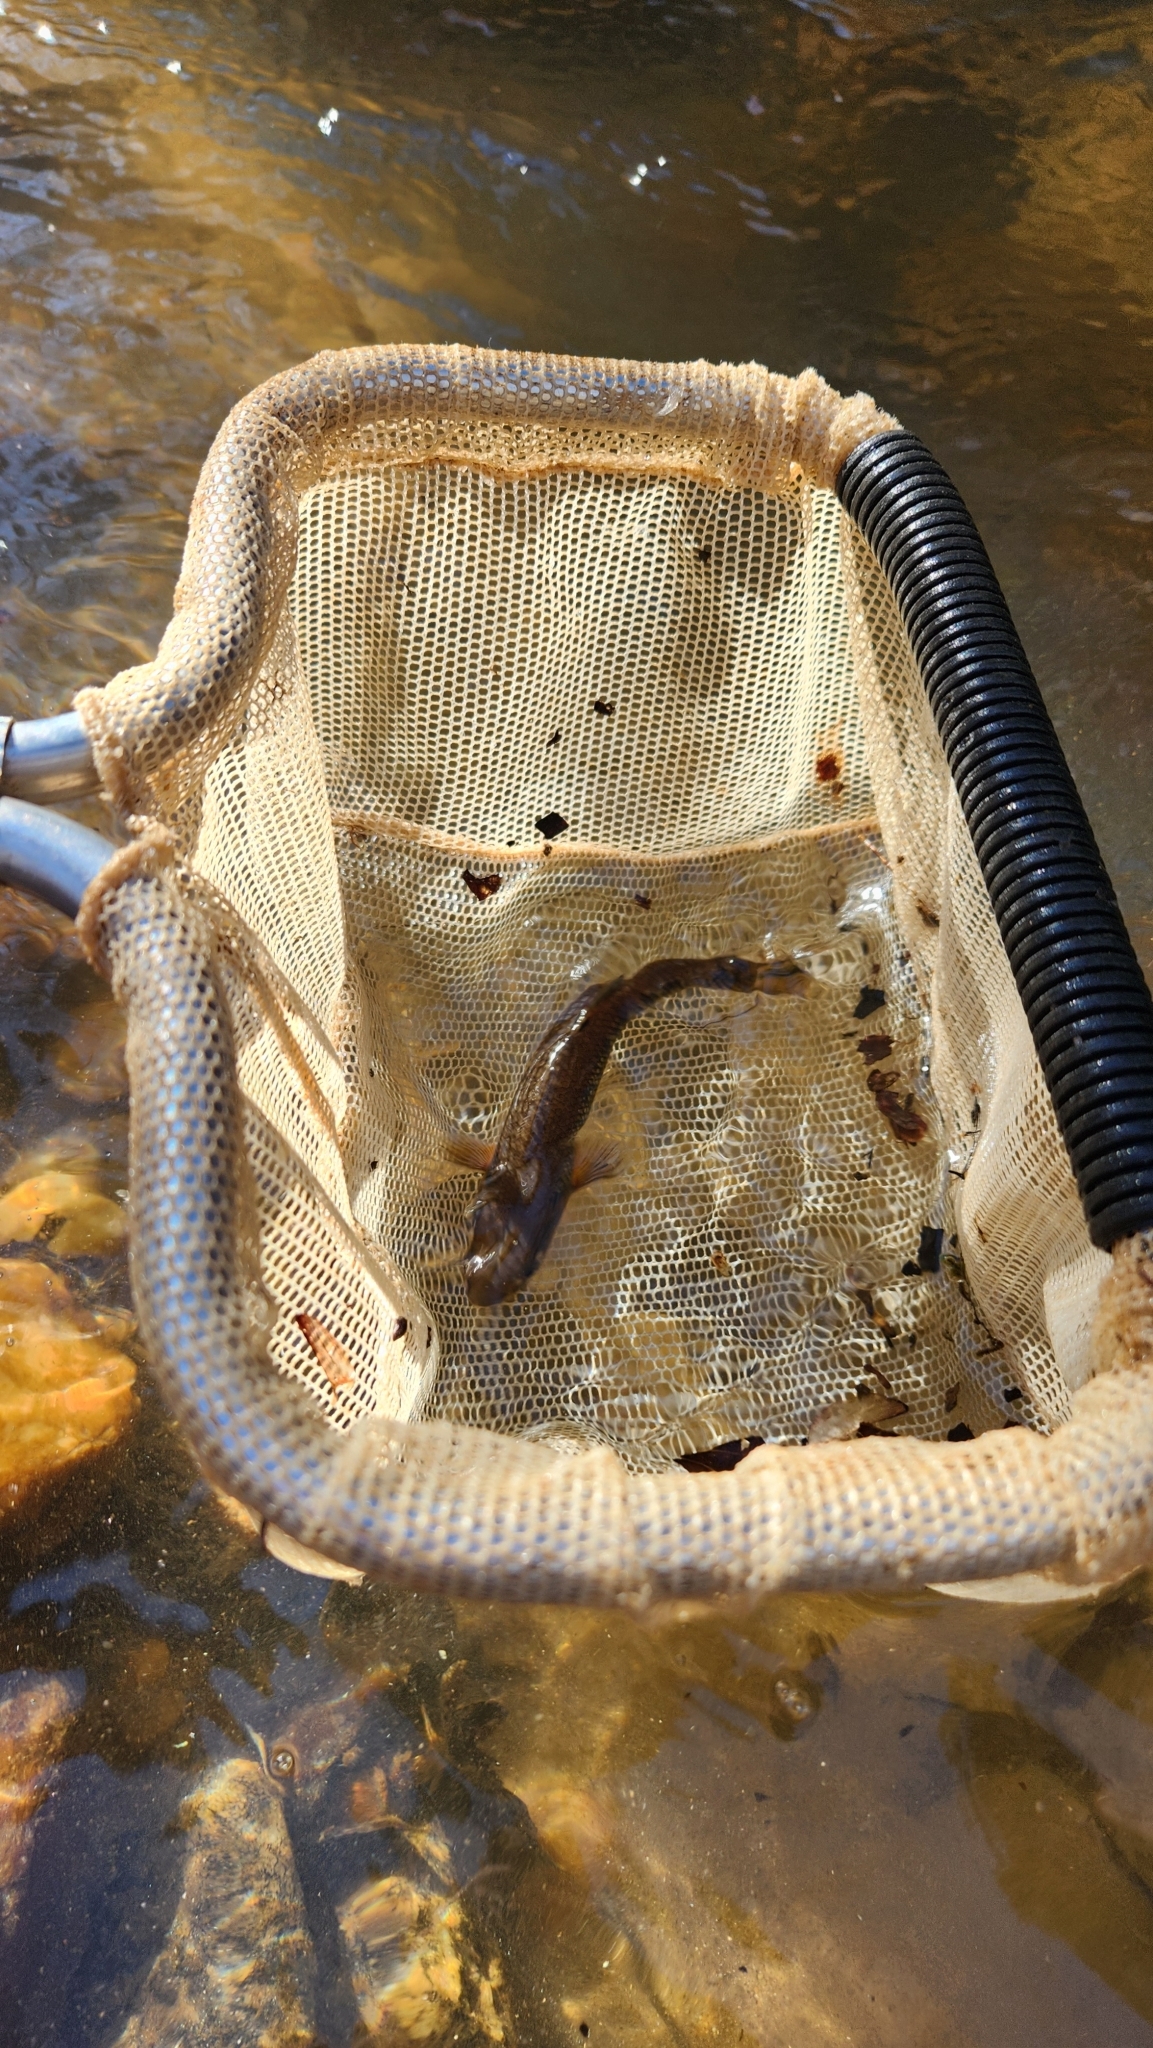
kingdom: Animalia
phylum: Chordata
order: Cypriniformes
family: Cyprinidae
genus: Semotilus
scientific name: Semotilus atromaculatus
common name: Creek chub
